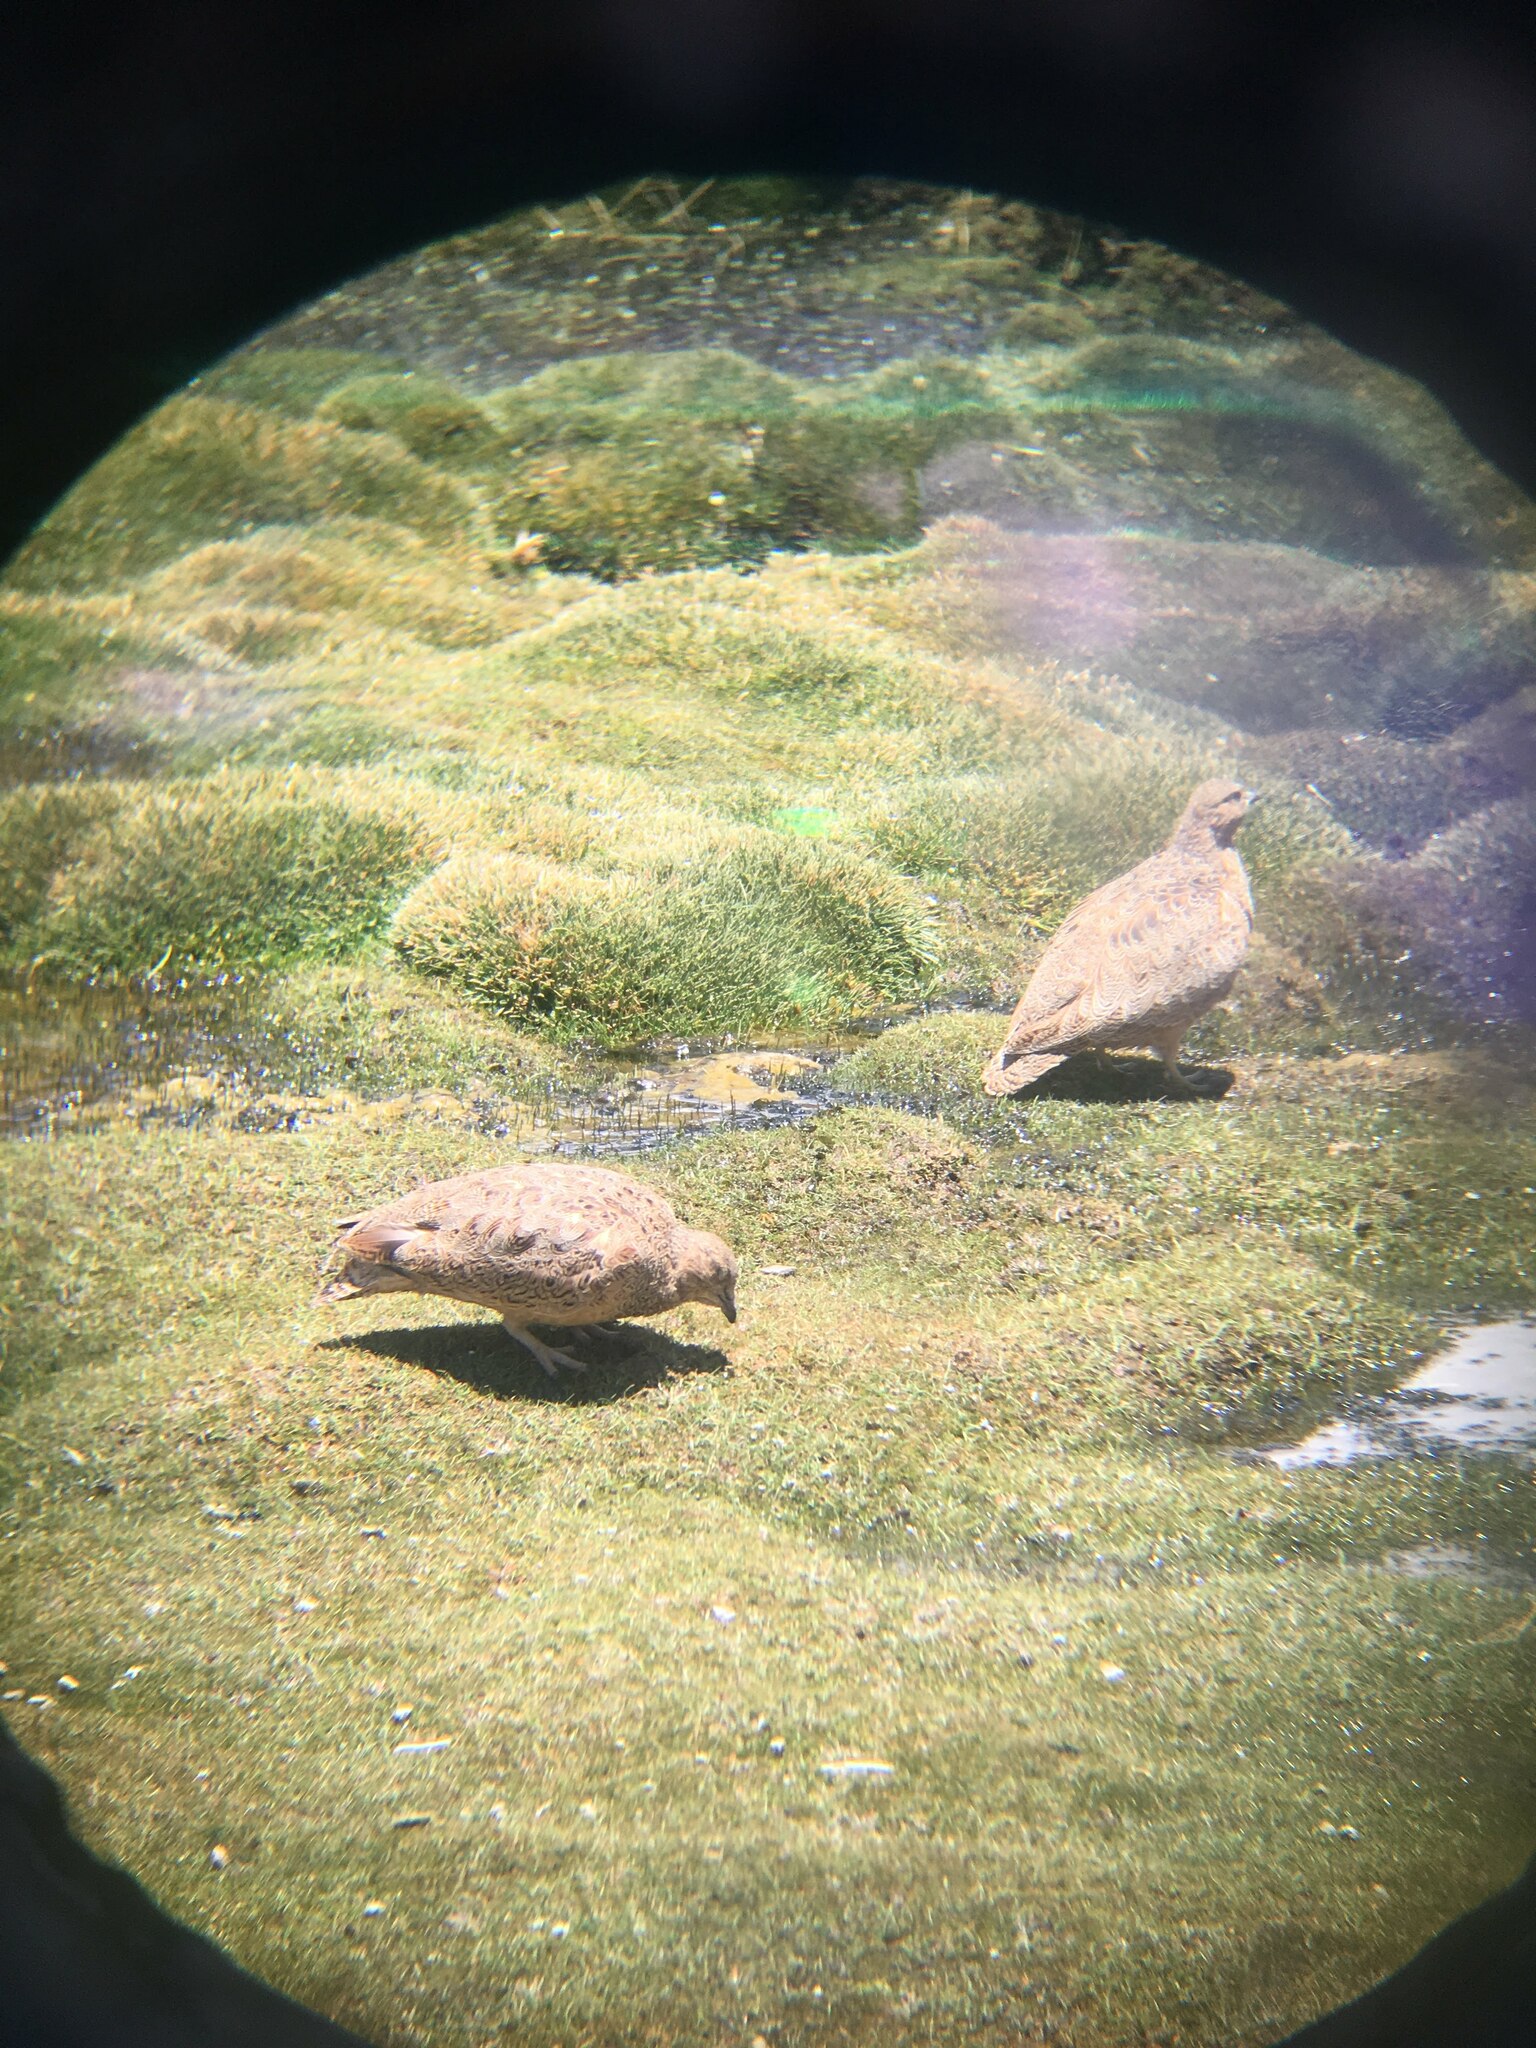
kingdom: Animalia
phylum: Chordata
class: Aves
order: Charadriiformes
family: Thinocoridae
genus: Attagis
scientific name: Attagis gayi
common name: Rufous-bellied seedsnipe
